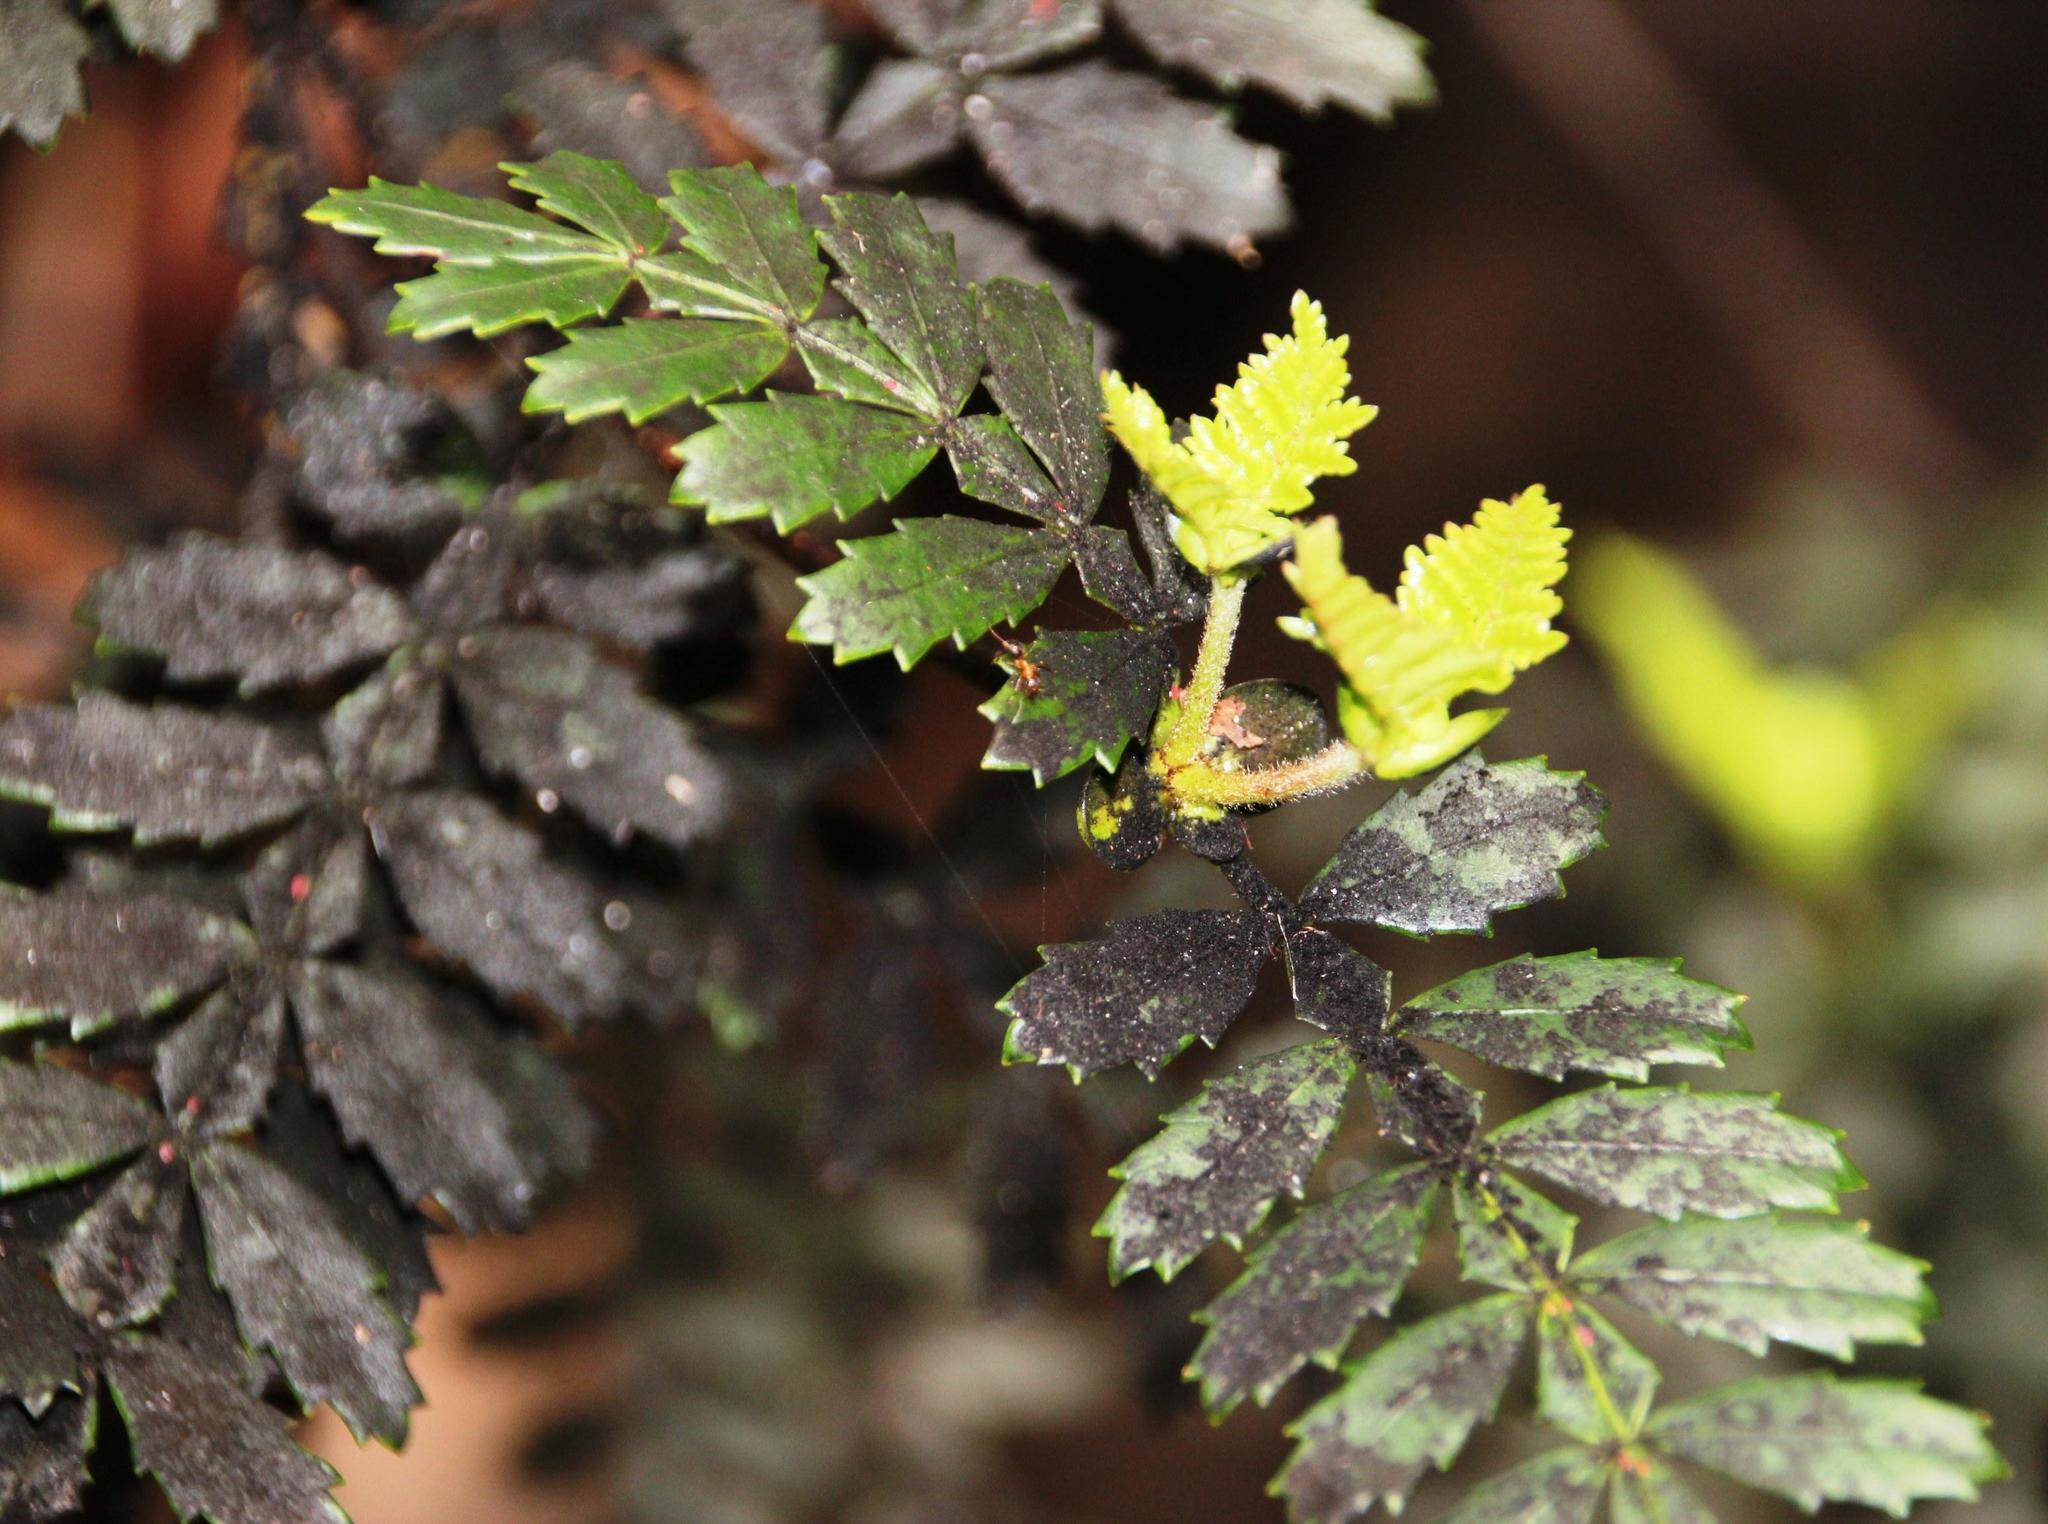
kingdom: Plantae
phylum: Tracheophyta
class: Magnoliopsida
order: Oxalidales
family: Cunoniaceae
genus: Weinmannia
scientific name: Weinmannia trichosperma
